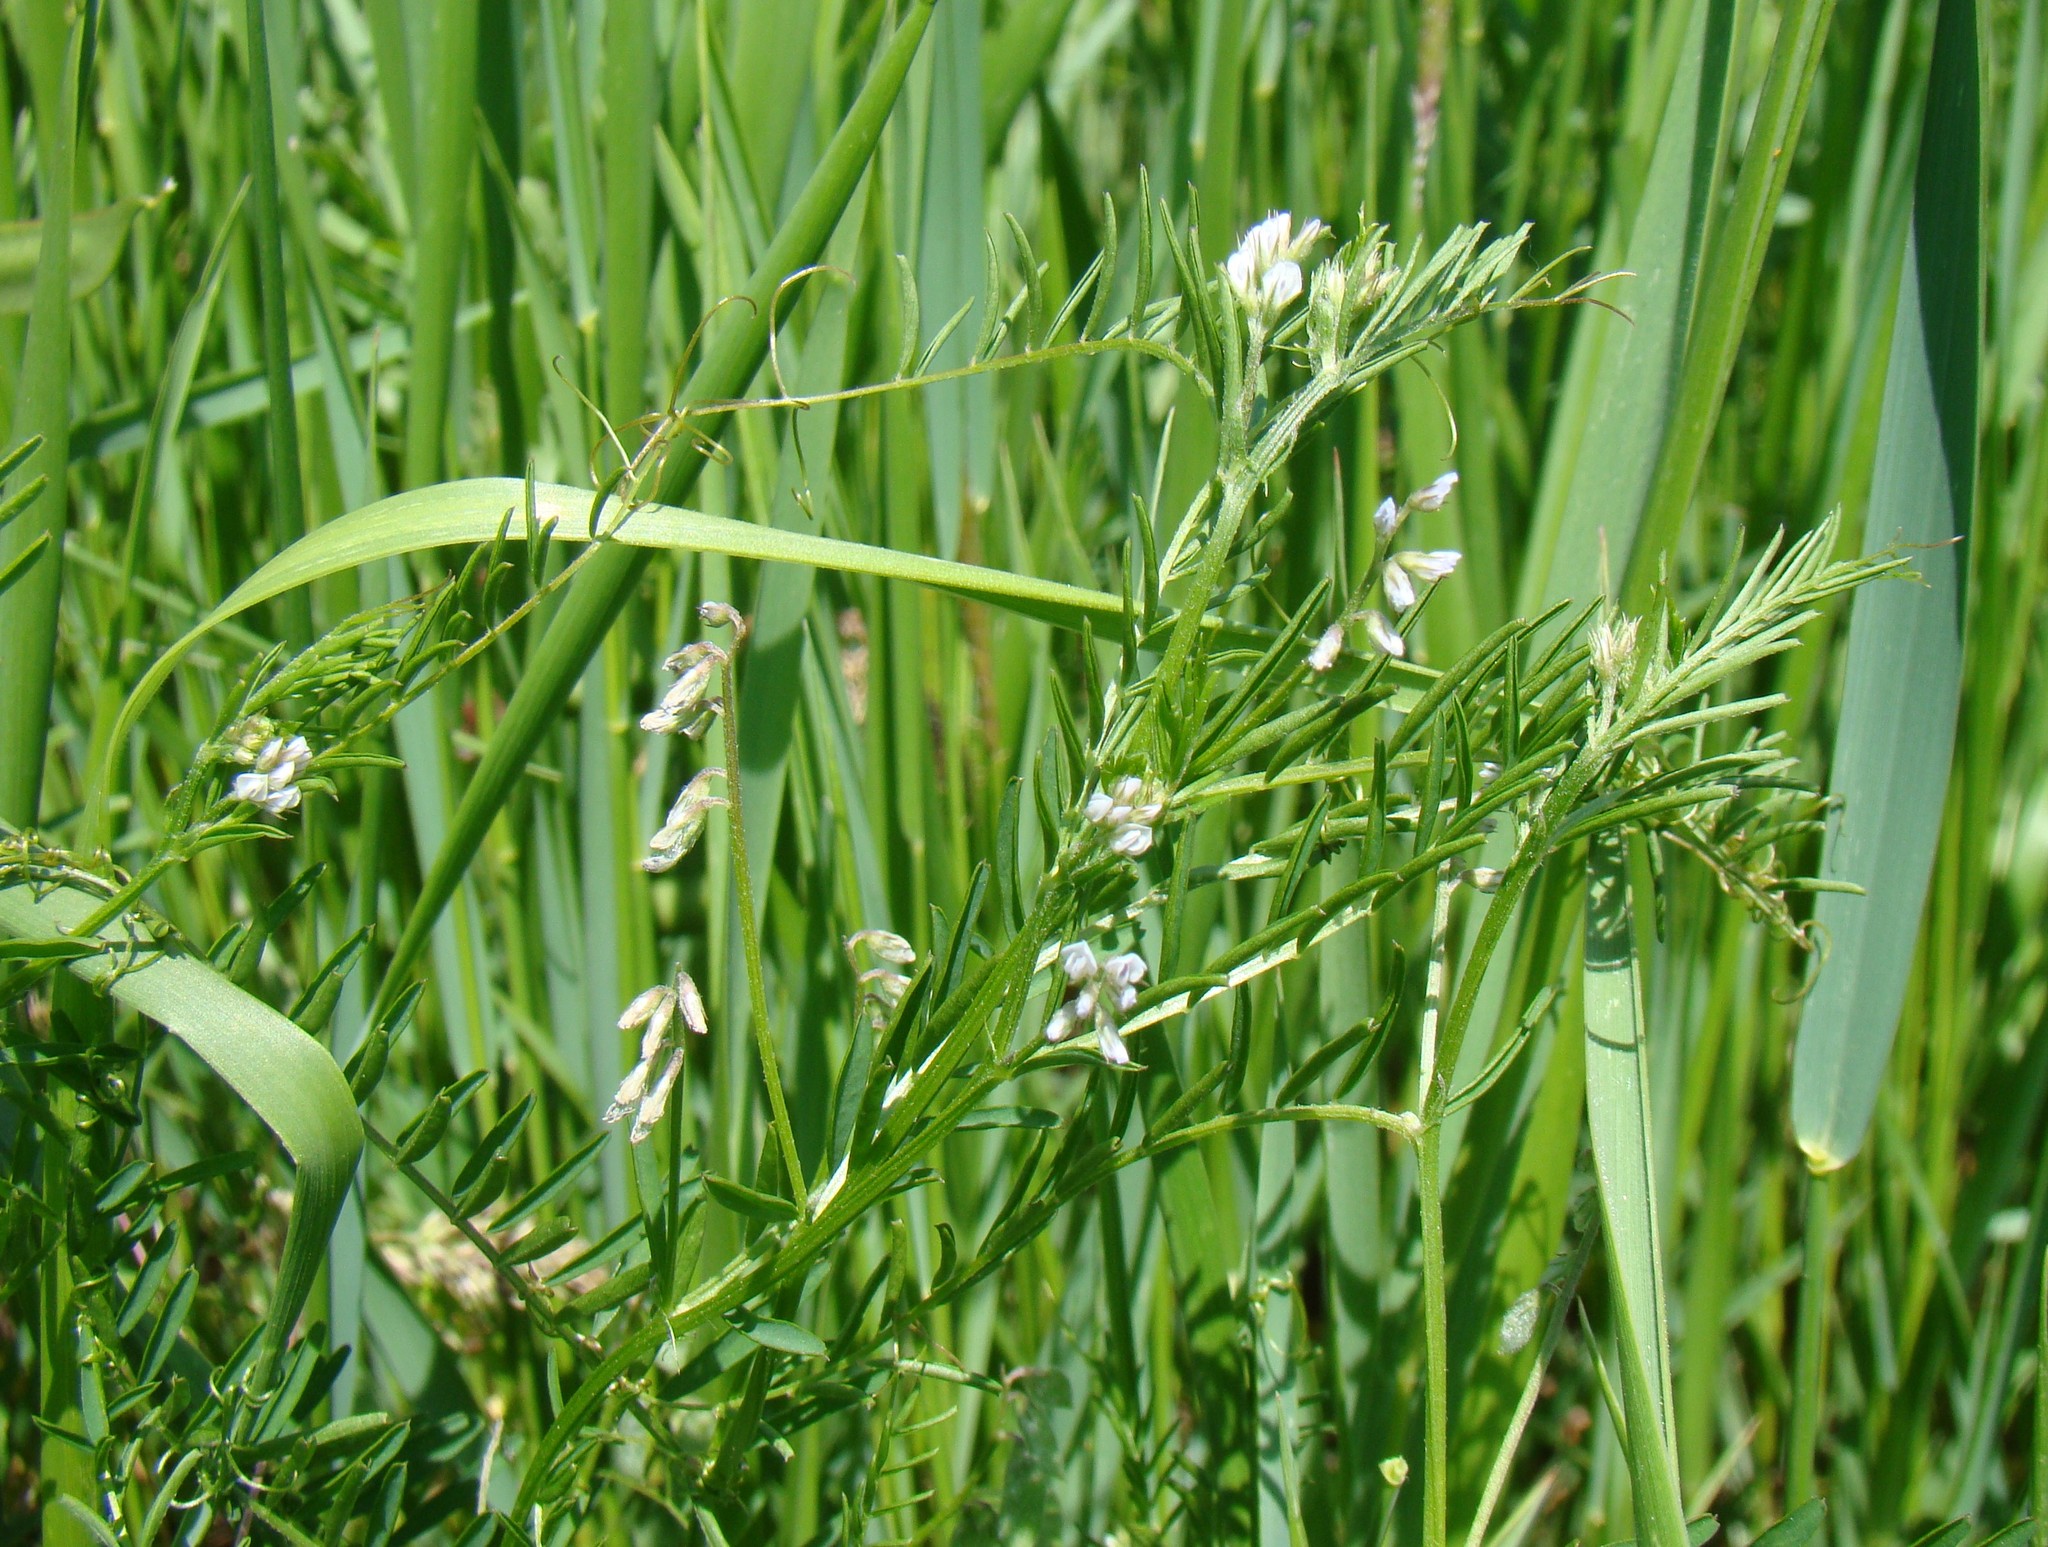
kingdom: Plantae
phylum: Tracheophyta
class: Magnoliopsida
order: Fabales
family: Fabaceae
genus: Vicia
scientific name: Vicia hirsuta
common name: Tiny vetch
